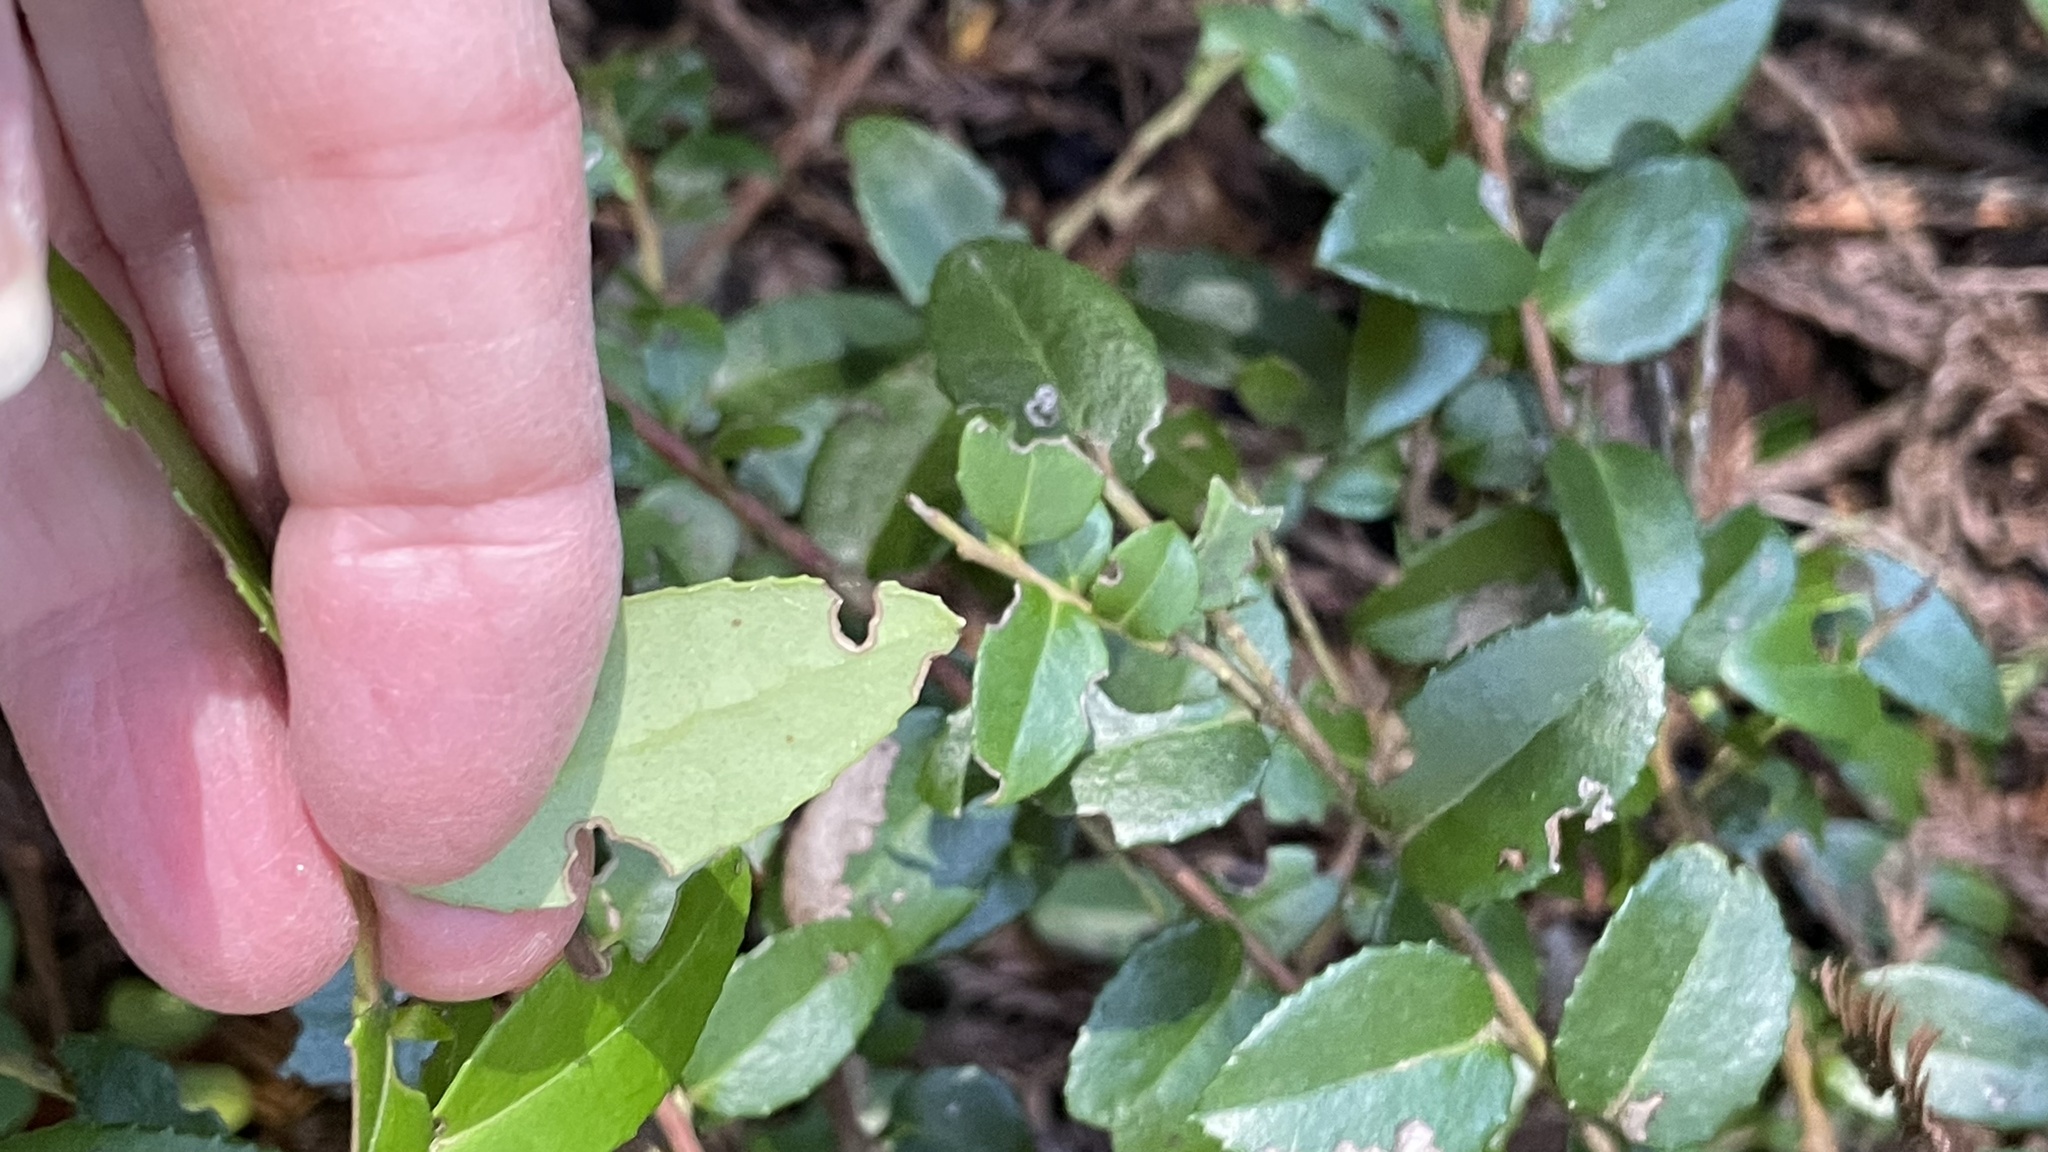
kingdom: Plantae
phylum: Tracheophyta
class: Magnoliopsida
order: Ericales
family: Ericaceae
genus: Vaccinium
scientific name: Vaccinium ovatum
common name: California-huckleberry
